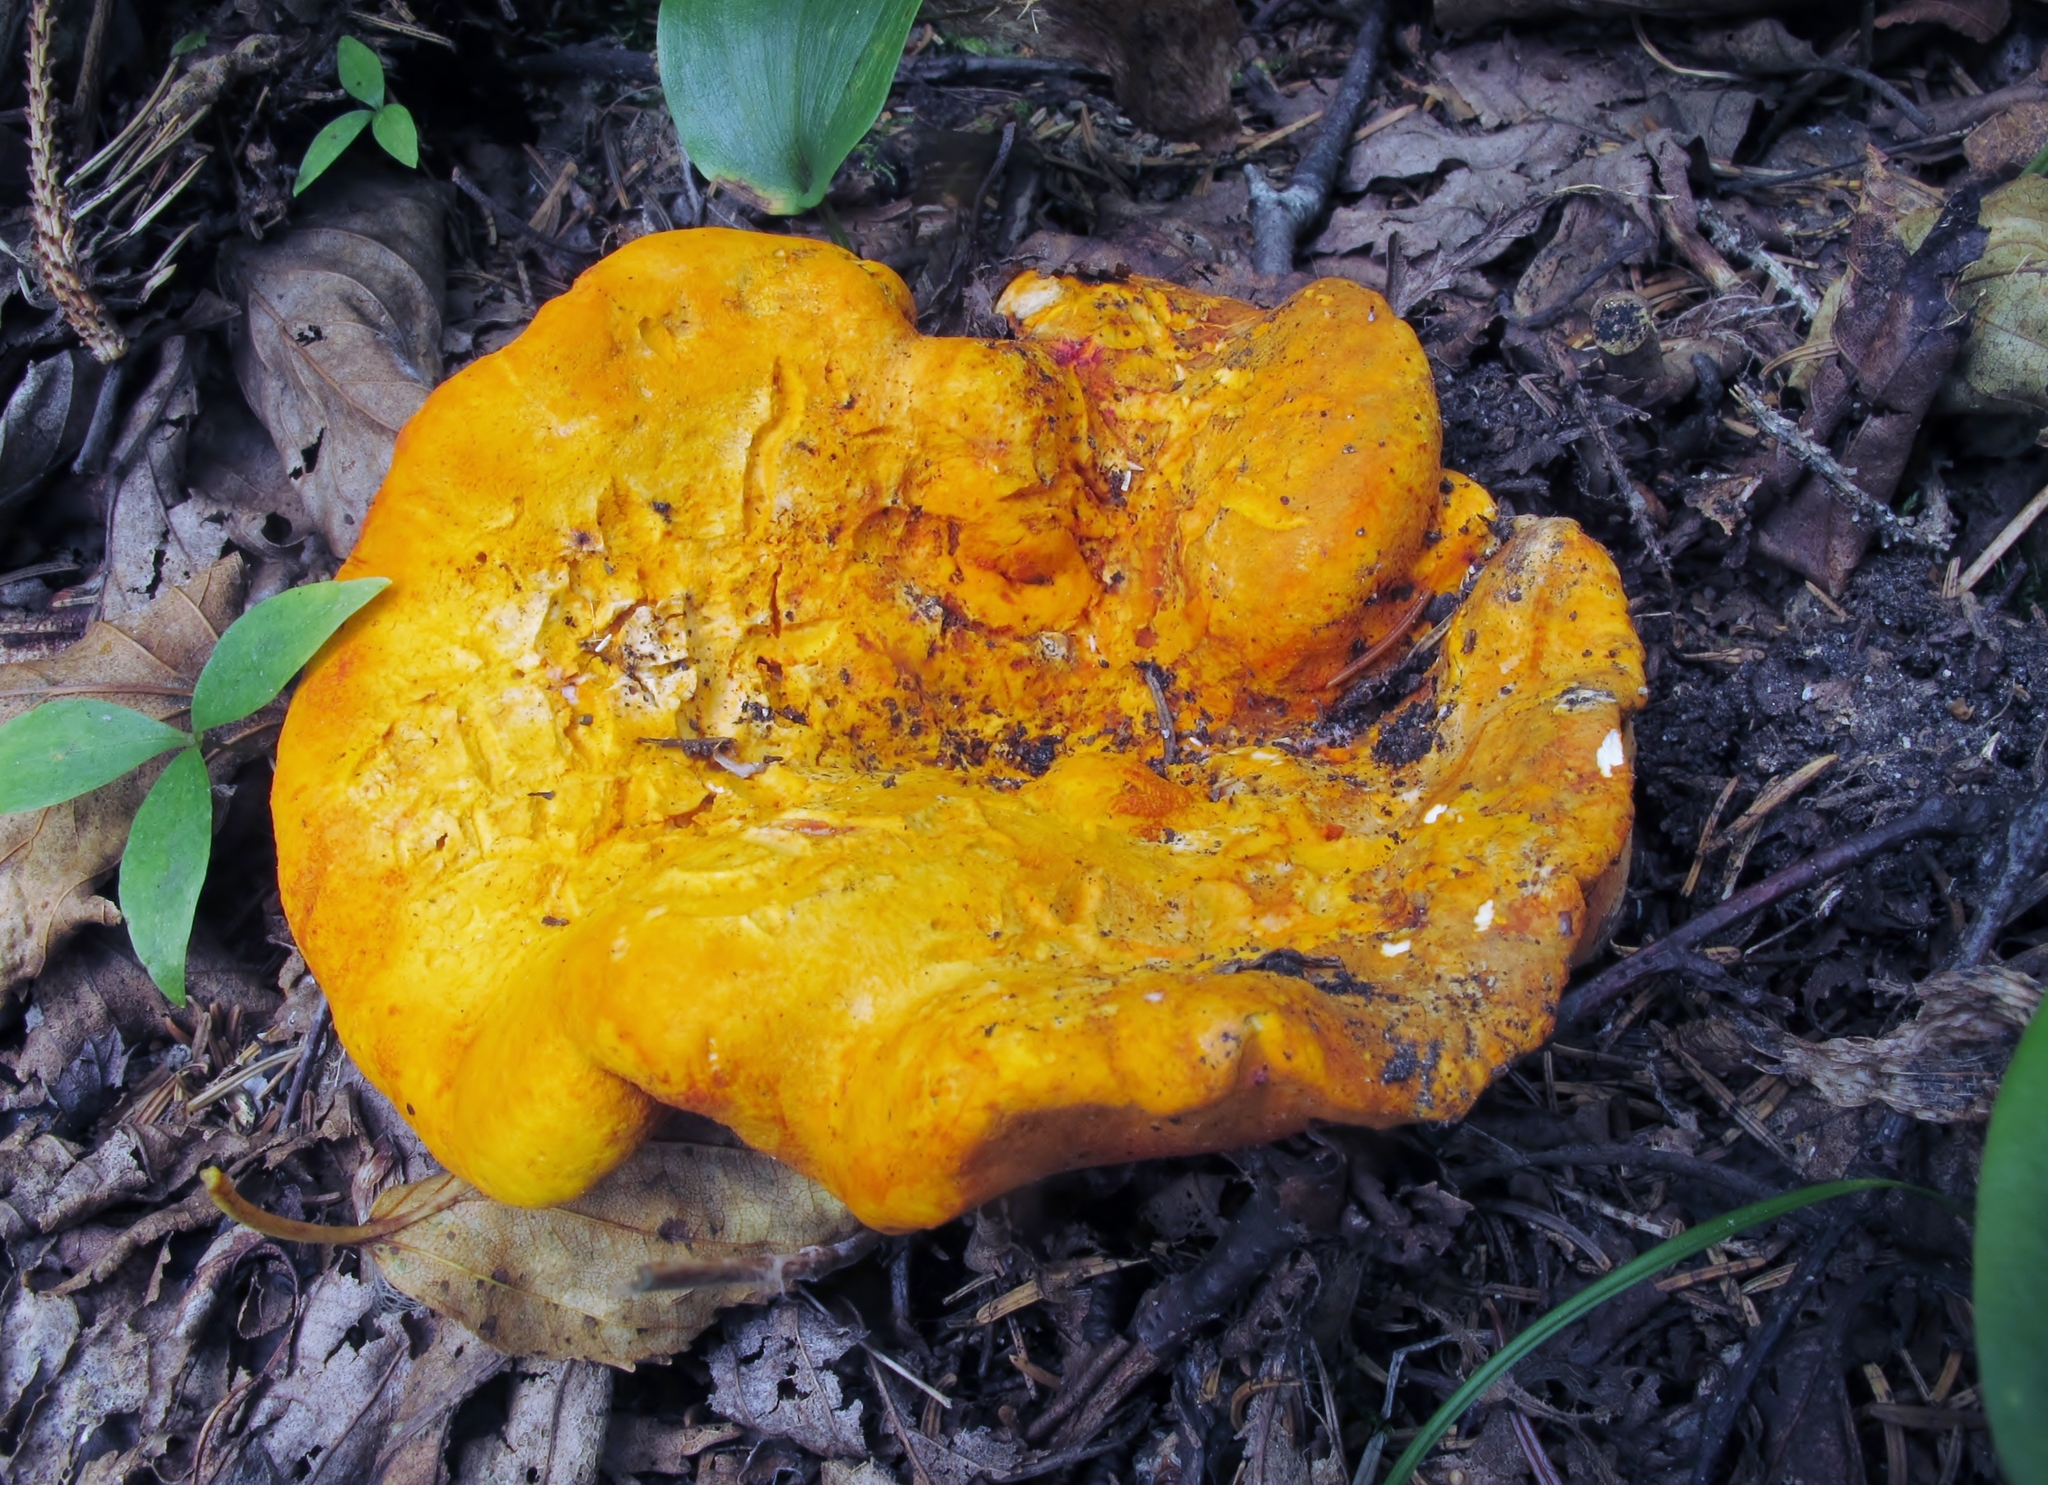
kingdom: Fungi
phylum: Ascomycota
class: Sordariomycetes
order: Hypocreales
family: Hypocreaceae
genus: Hypomyces
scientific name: Hypomyces lactifluorum
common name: Lobster mushroom
